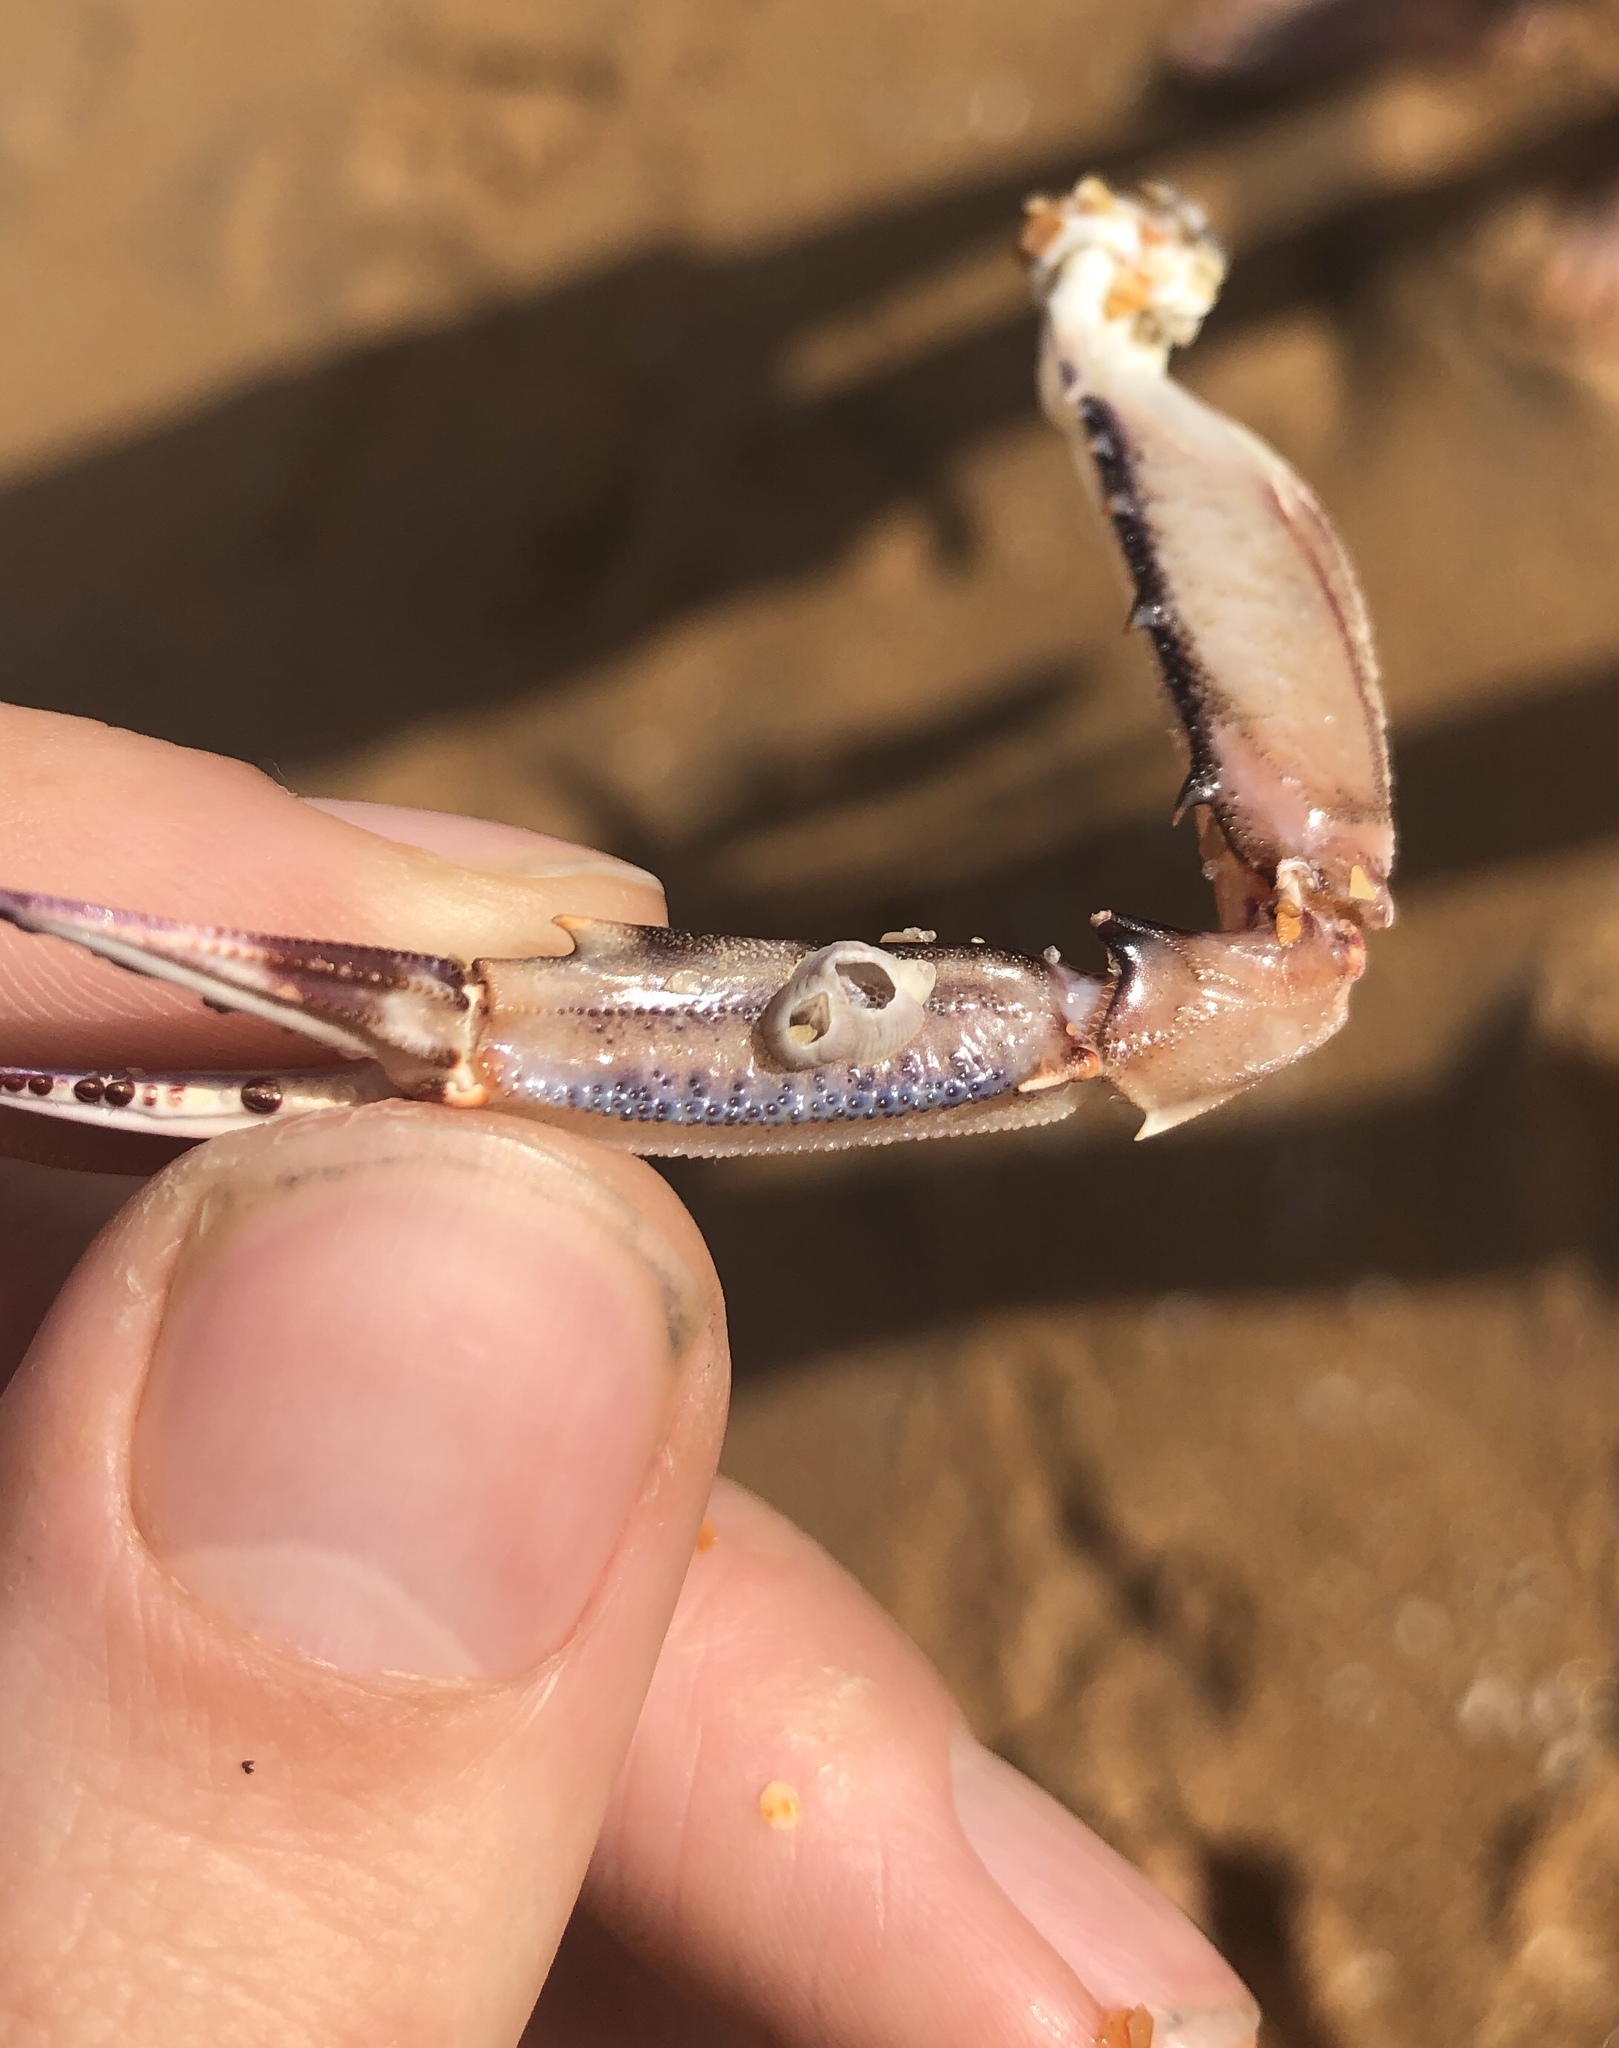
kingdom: Animalia
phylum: Arthropoda
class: Maxillopoda
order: Sessilia
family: Balanidae
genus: Amphibalanus
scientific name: Amphibalanus venustus
